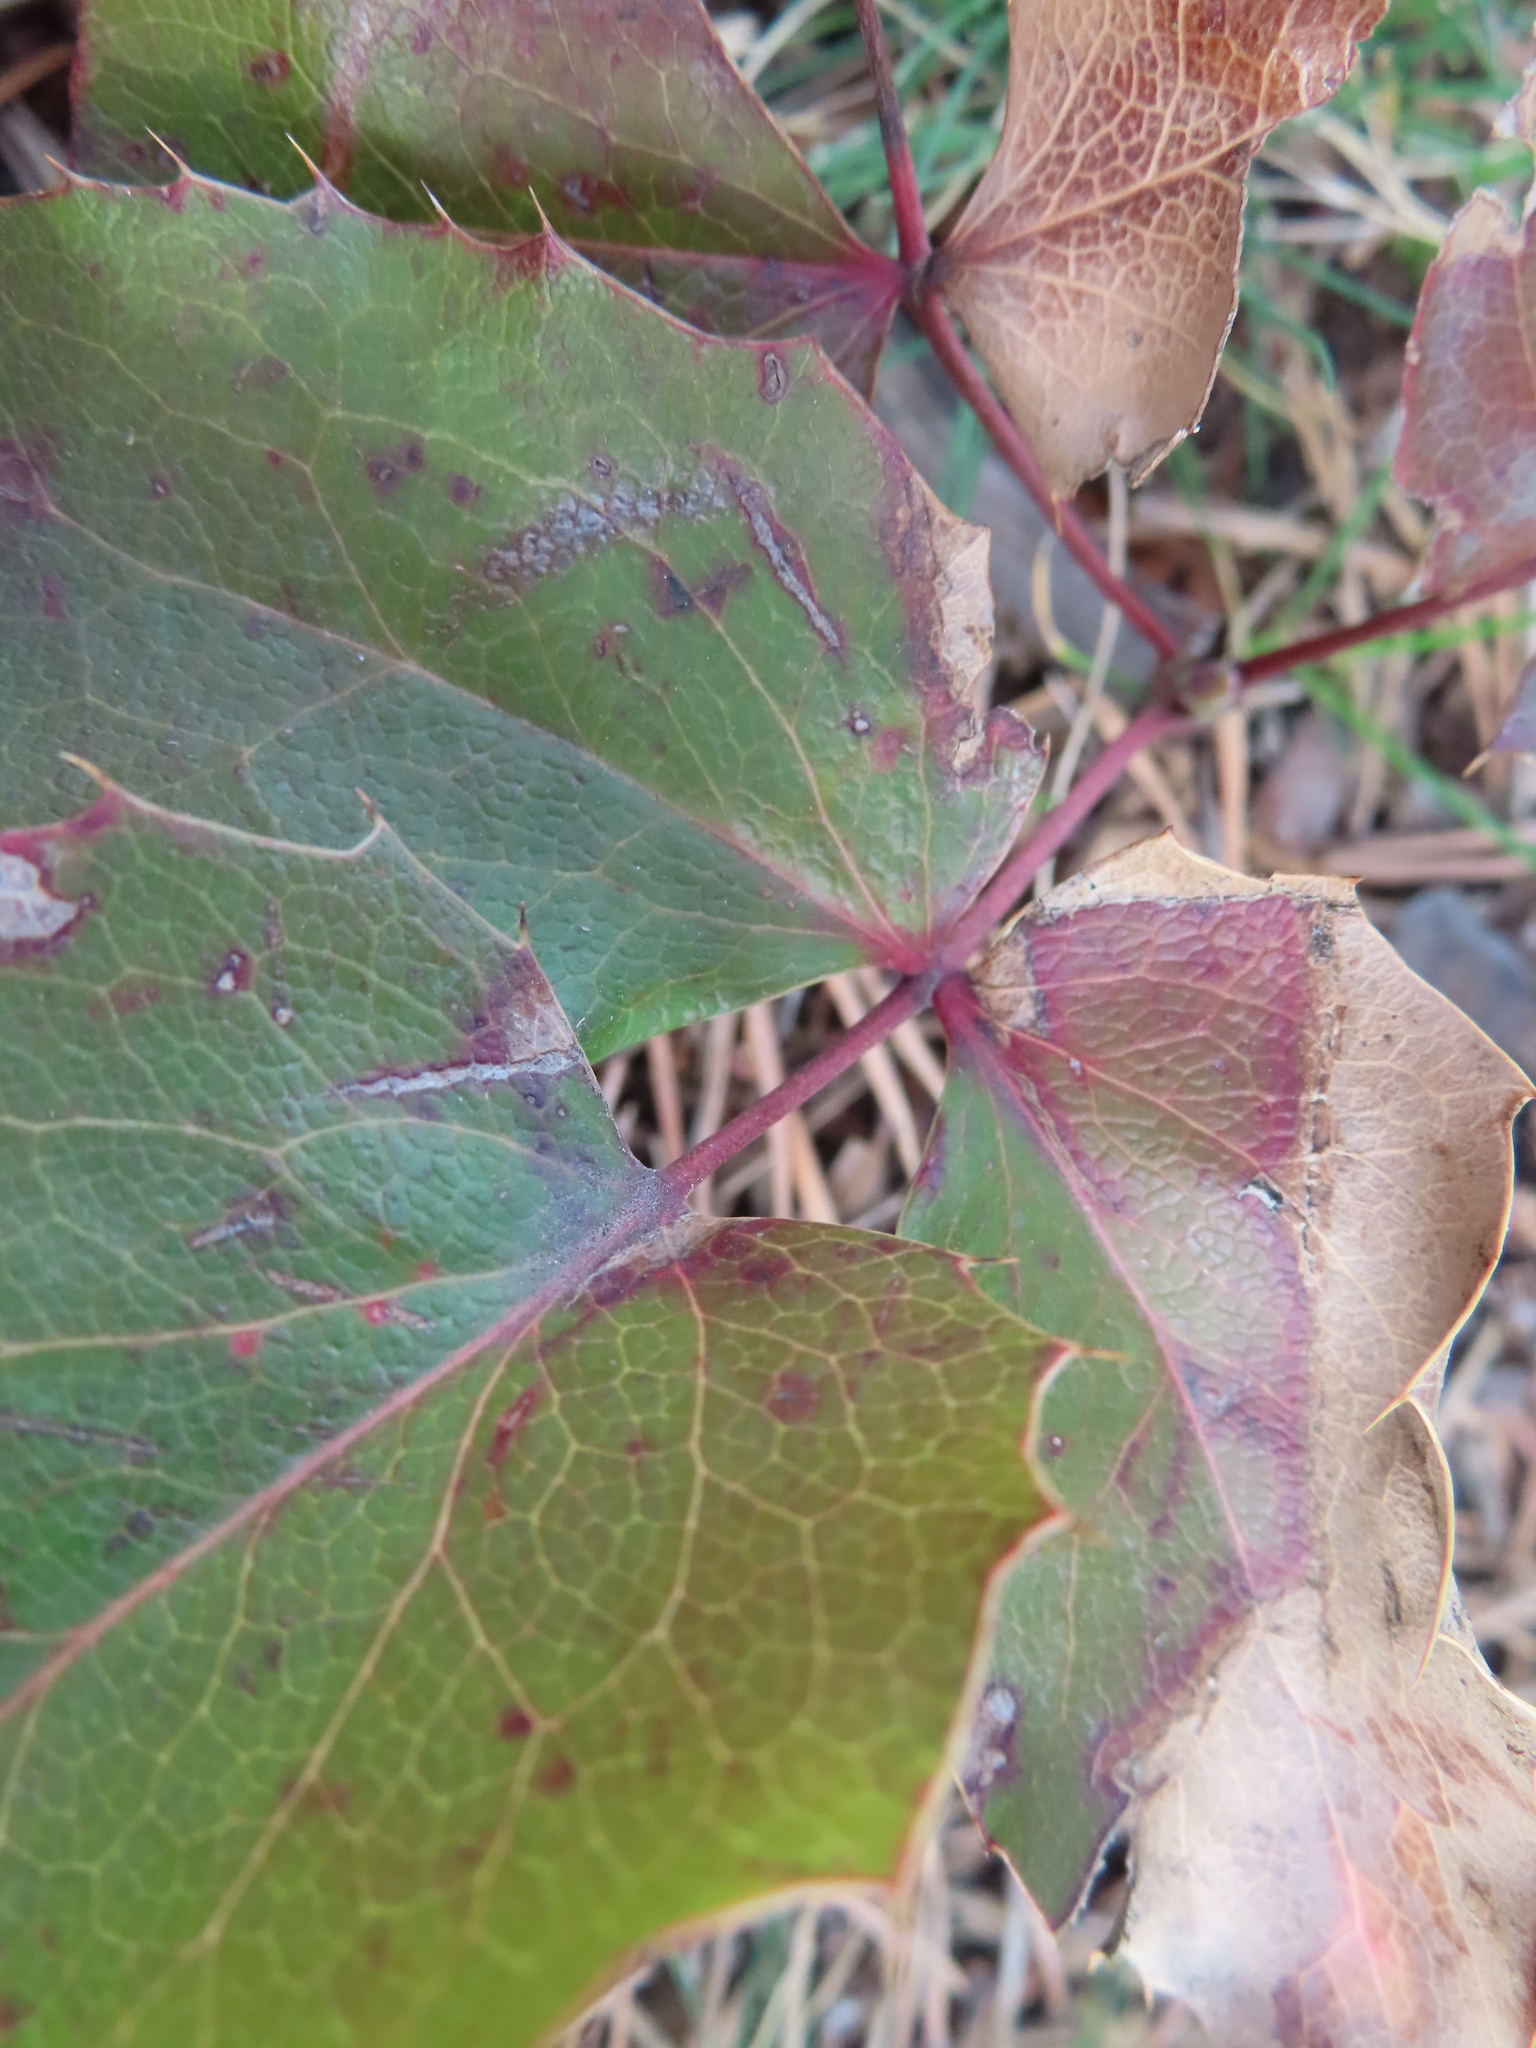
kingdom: Plantae
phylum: Tracheophyta
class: Magnoliopsida
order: Ranunculales
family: Berberidaceae
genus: Mahonia
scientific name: Mahonia repens
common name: Creeping oregon-grape
